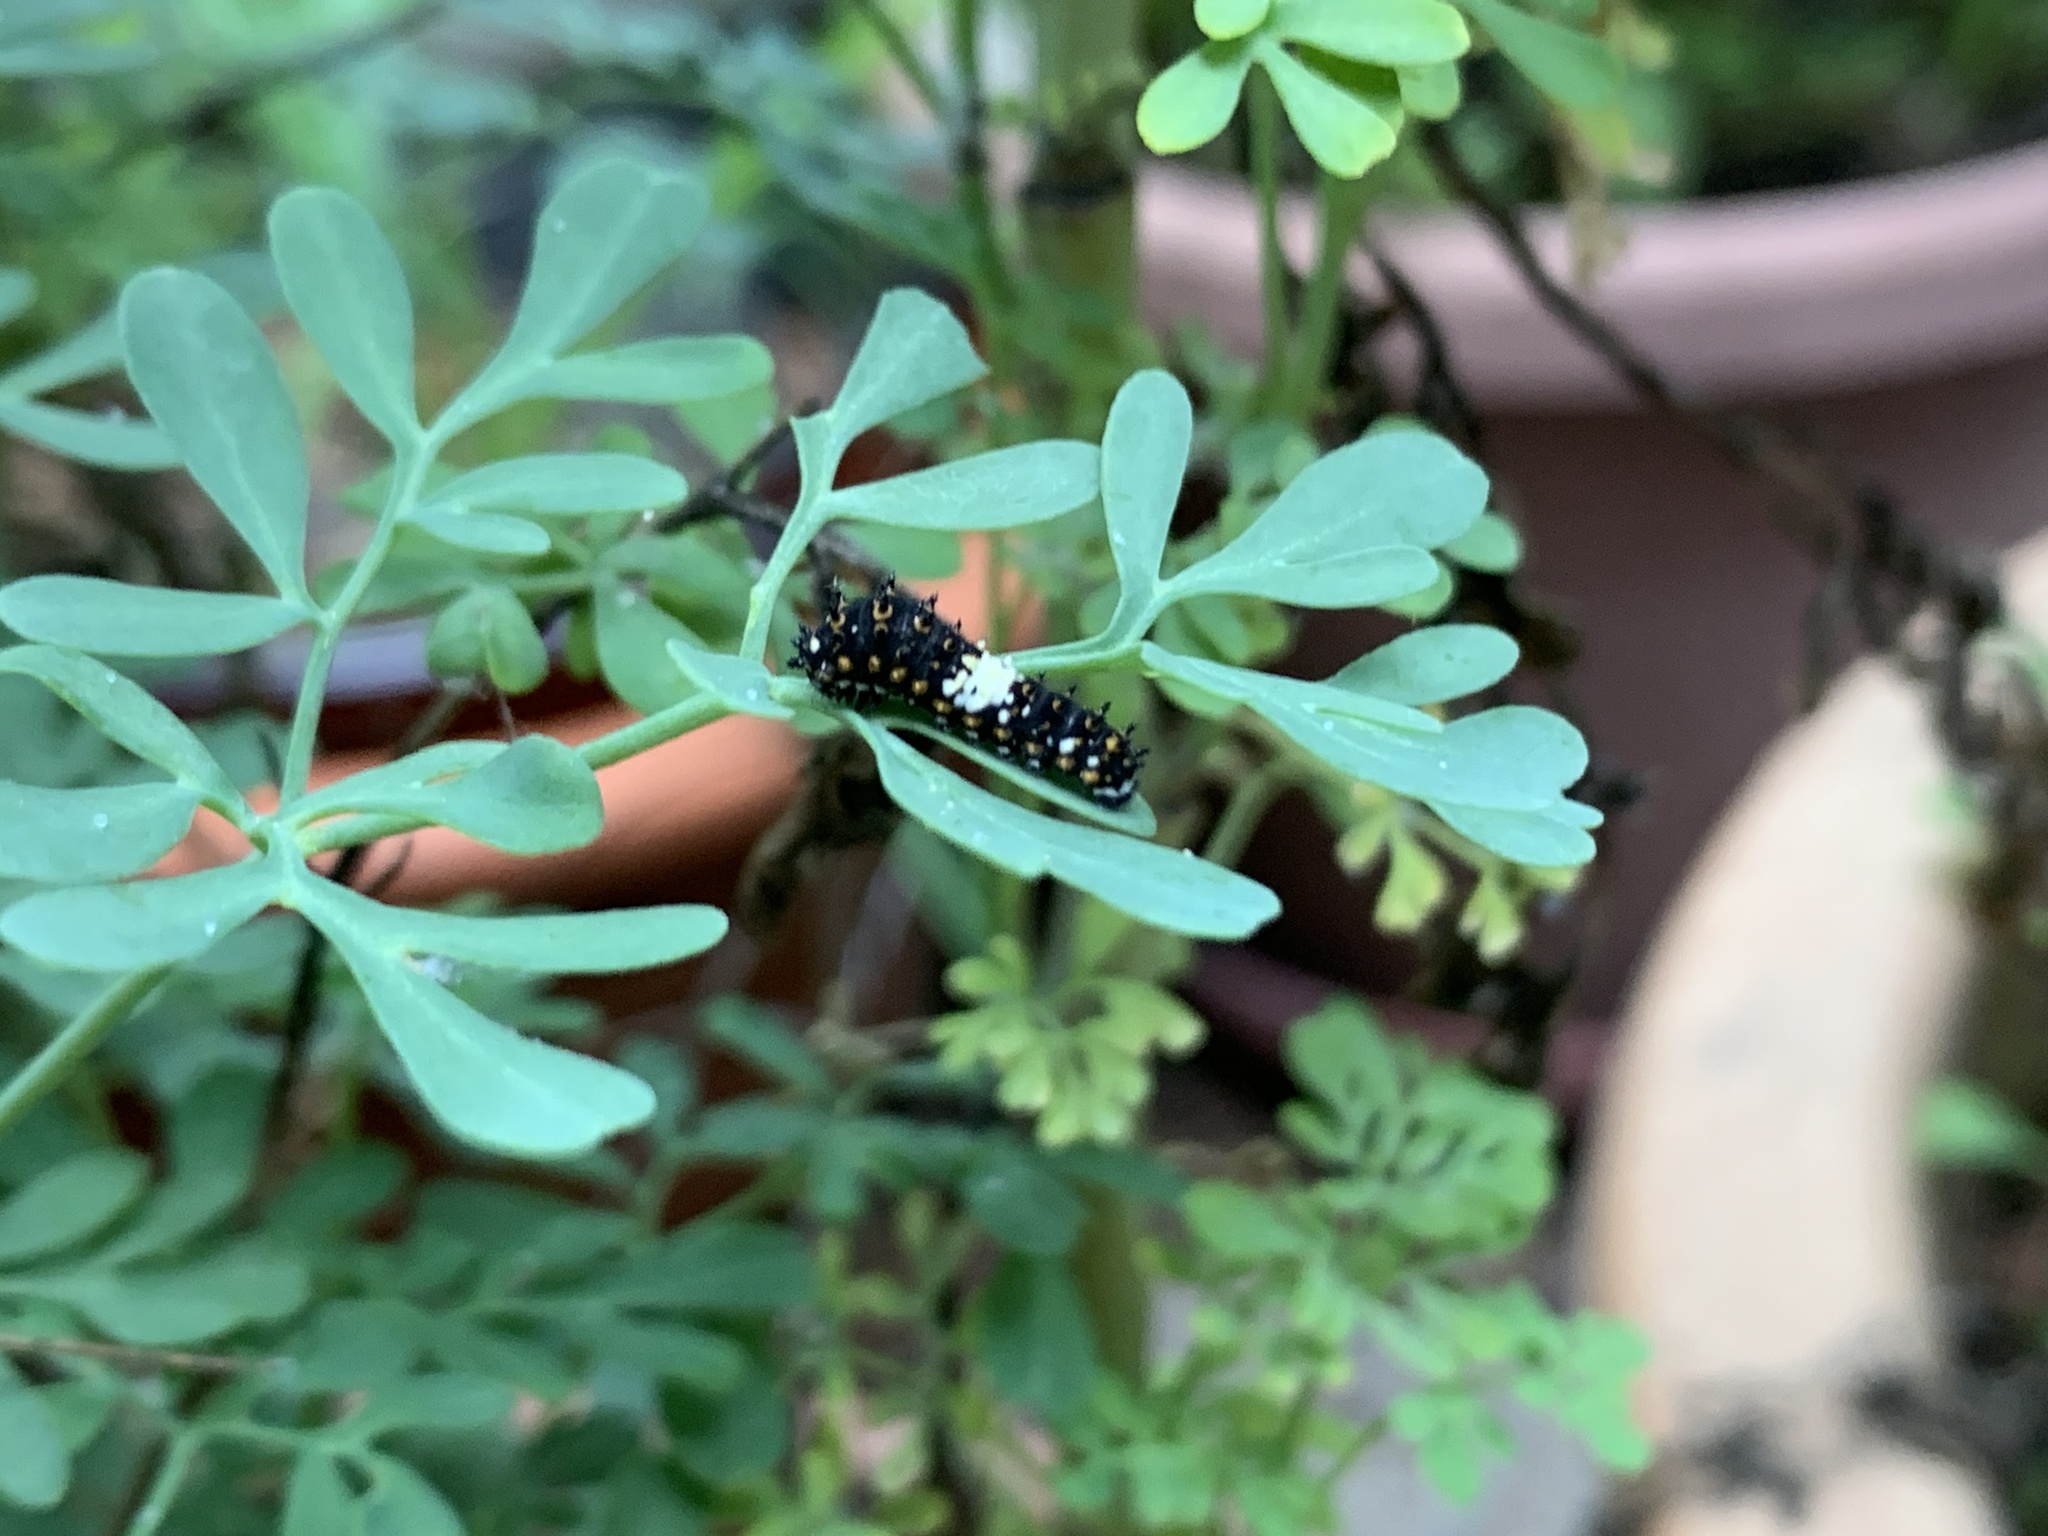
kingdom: Animalia
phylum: Arthropoda
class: Insecta
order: Lepidoptera
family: Papilionidae
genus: Papilio
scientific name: Papilio polyxenes
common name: Black swallowtail
